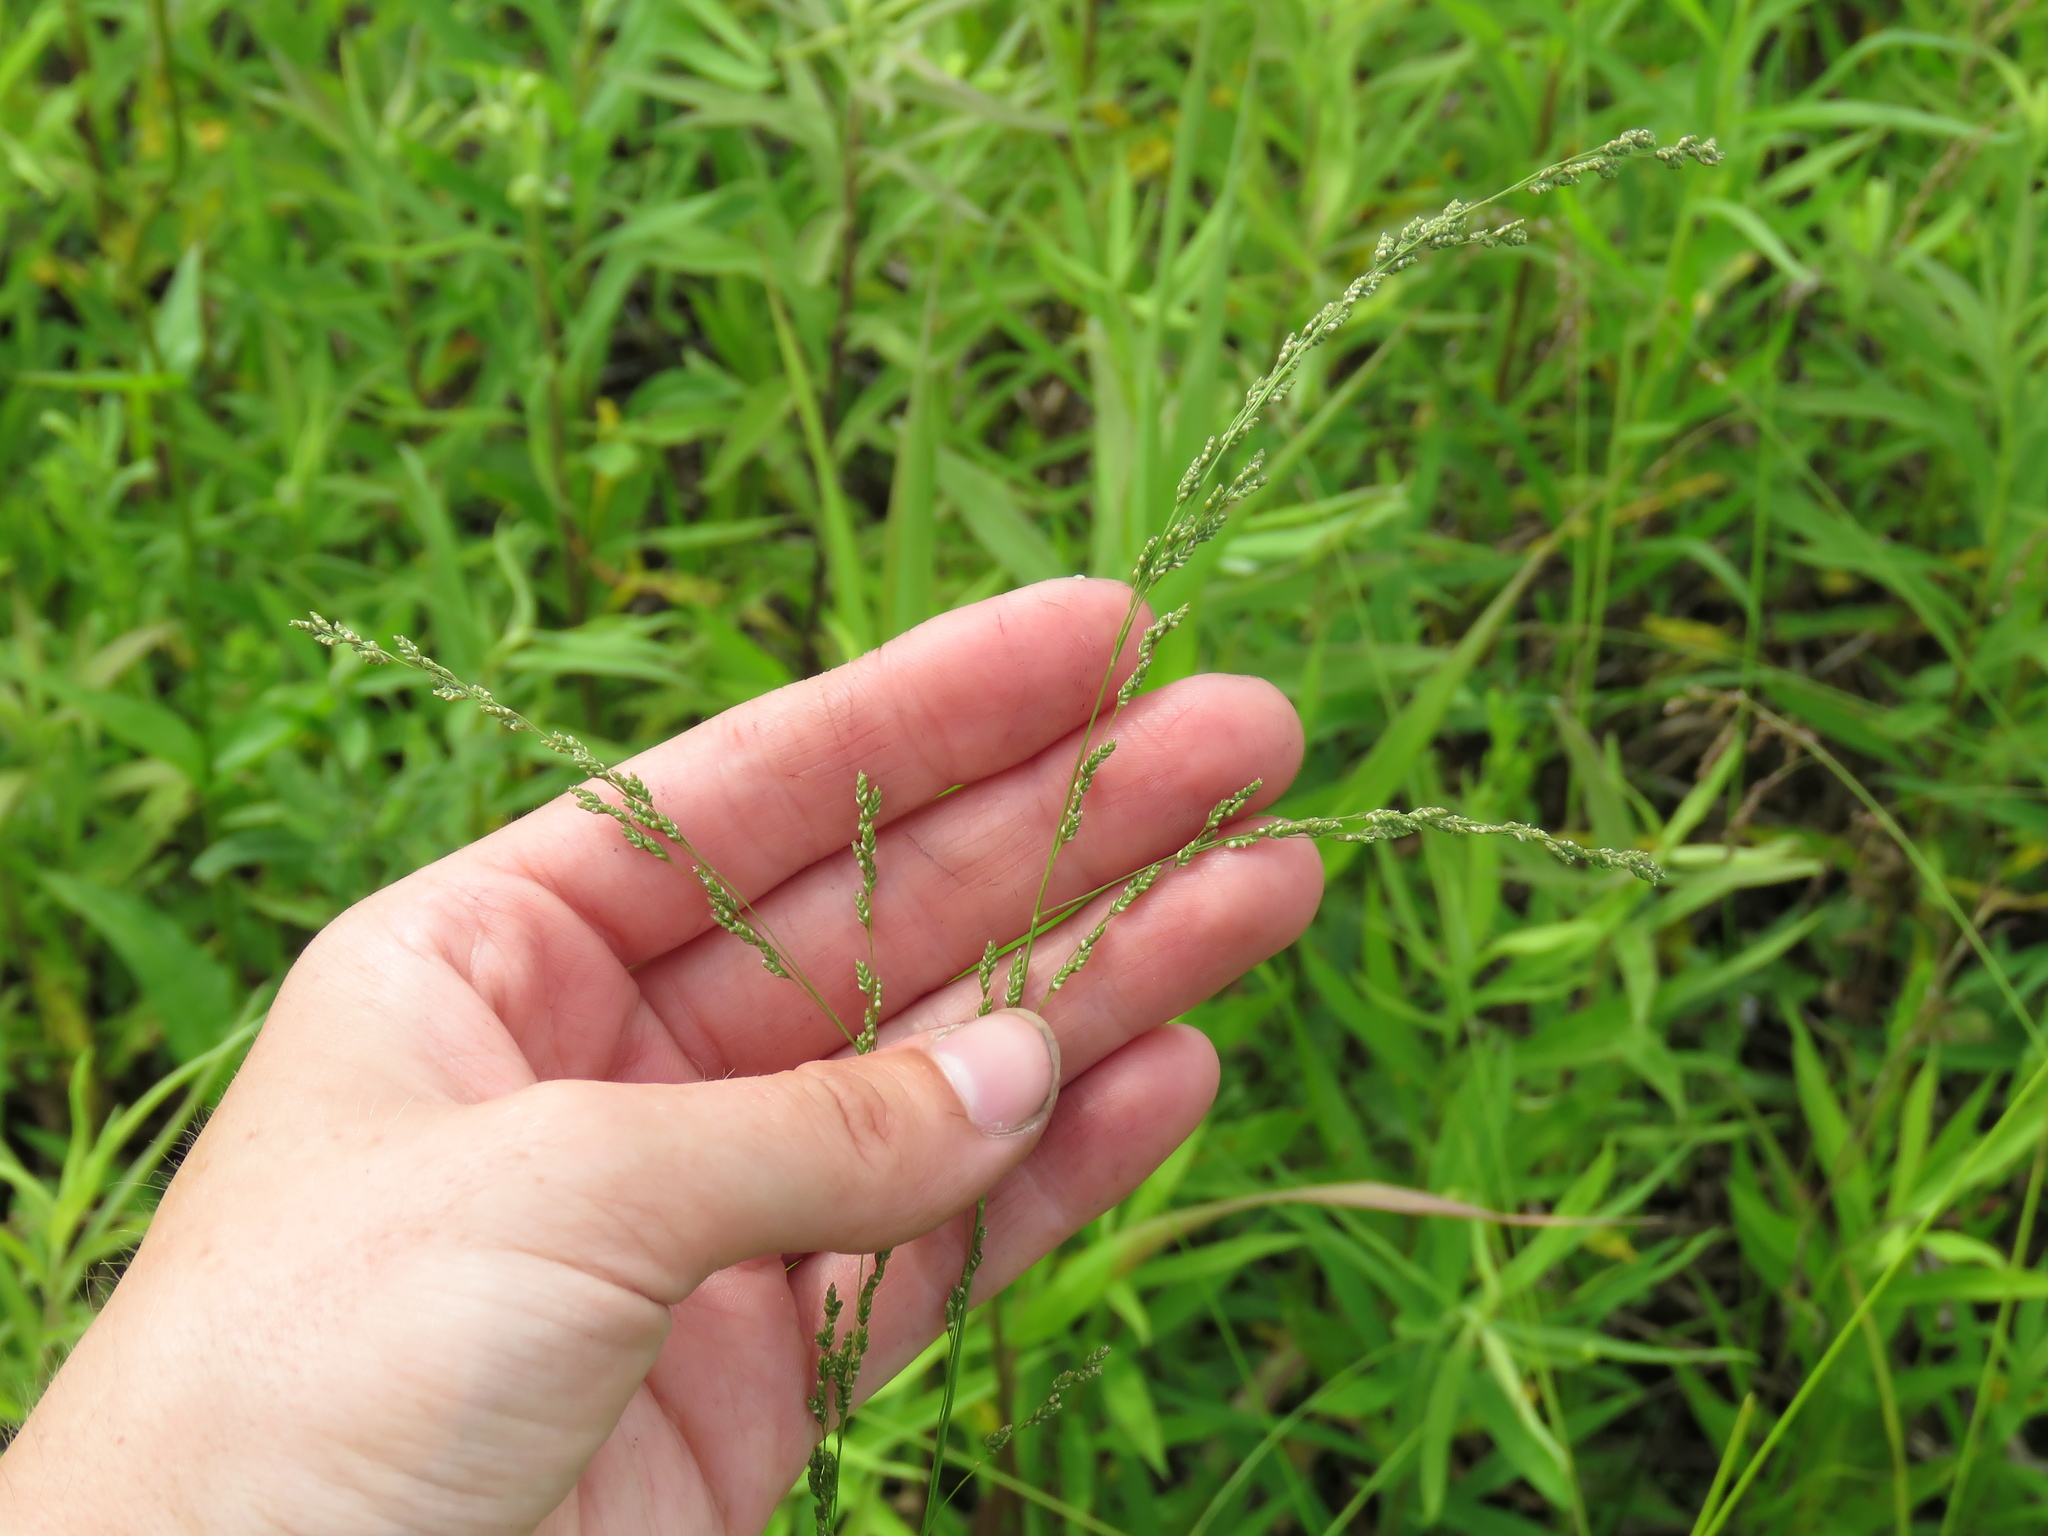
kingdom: Plantae
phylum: Tracheophyta
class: Liliopsida
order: Poales
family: Poaceae
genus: Glyceria
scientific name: Glyceria striata
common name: Fowl manna grass
